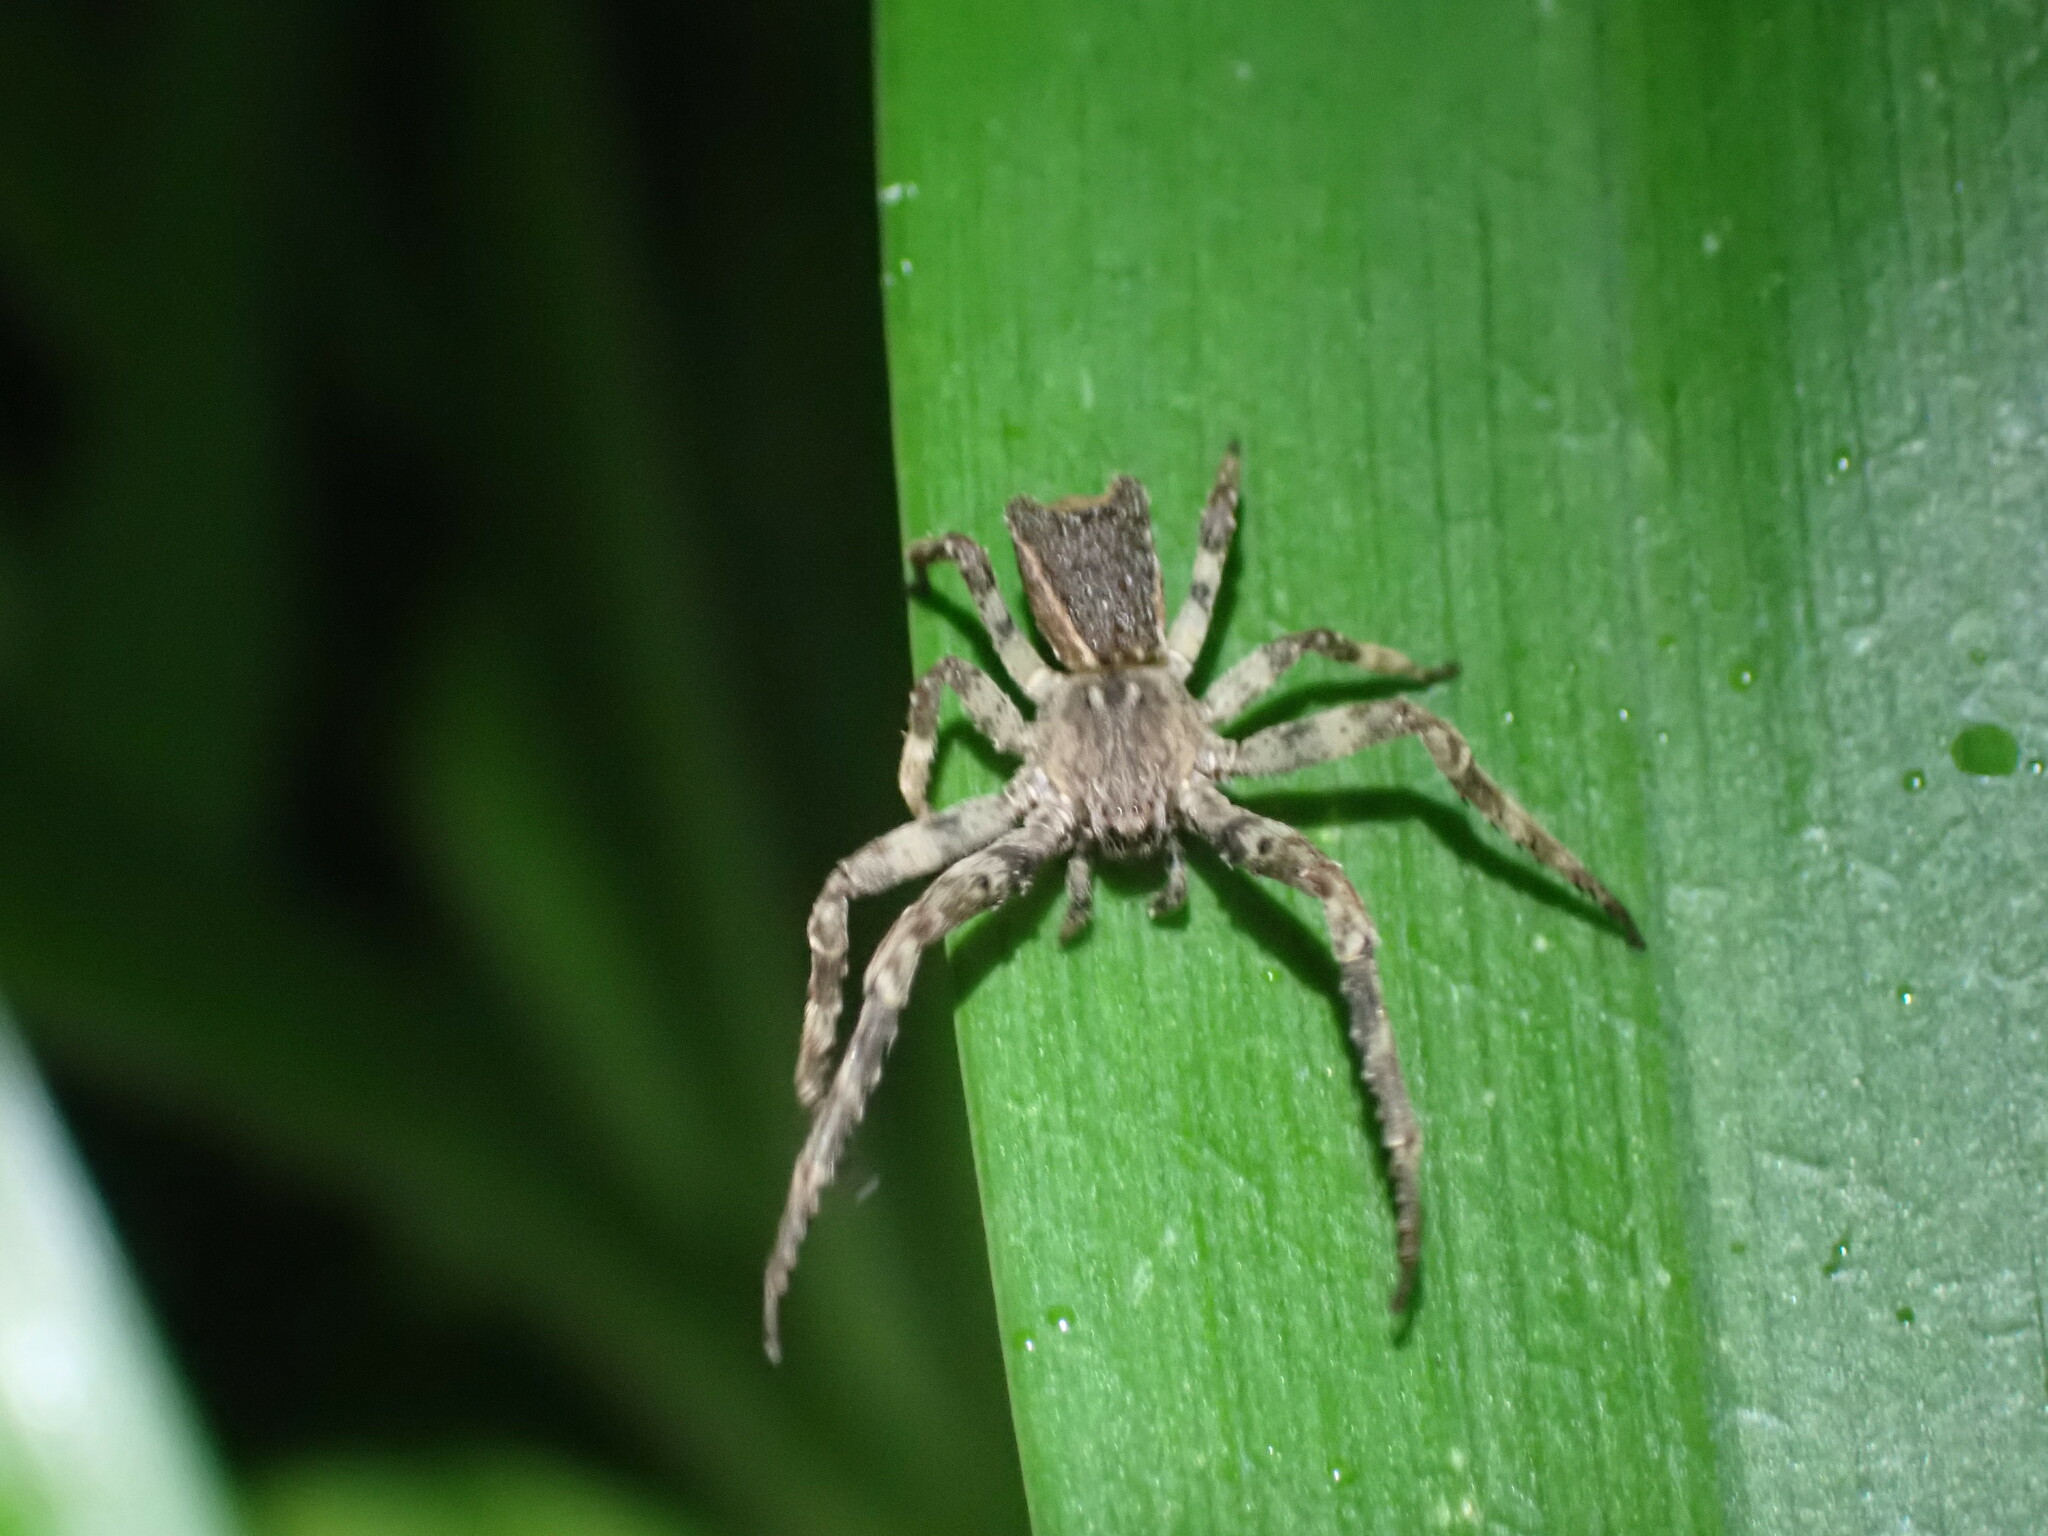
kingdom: Animalia
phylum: Arthropoda
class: Arachnida
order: Araneae
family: Thomisidae
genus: Sidymella
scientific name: Sidymella angularis
